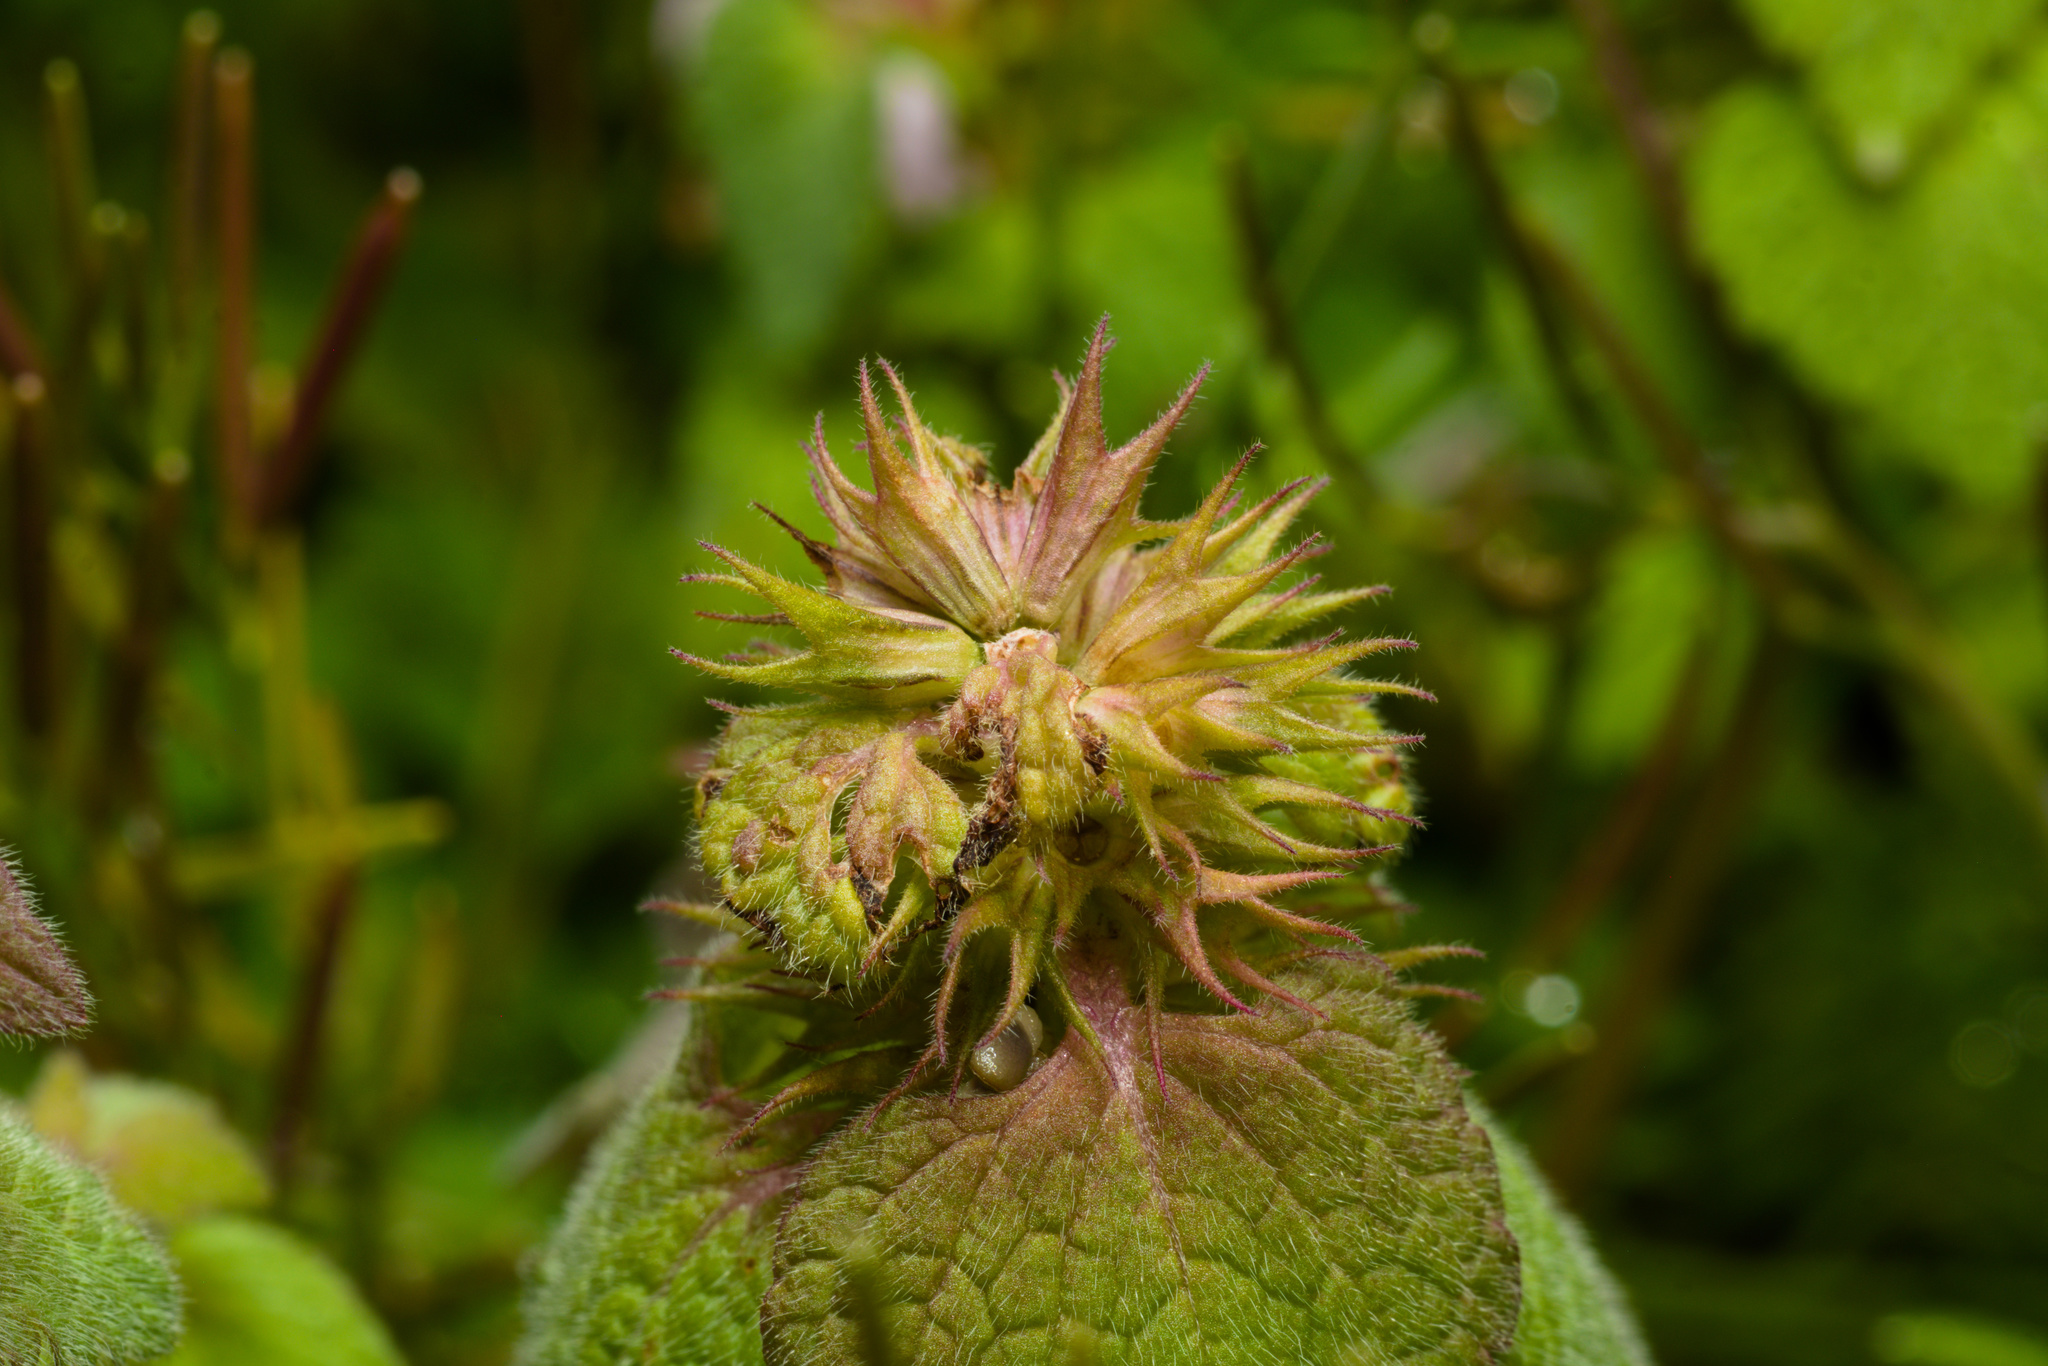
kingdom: Plantae
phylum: Tracheophyta
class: Magnoliopsida
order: Lamiales
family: Lamiaceae
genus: Lamium
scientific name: Lamium purpureum
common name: Red dead-nettle
